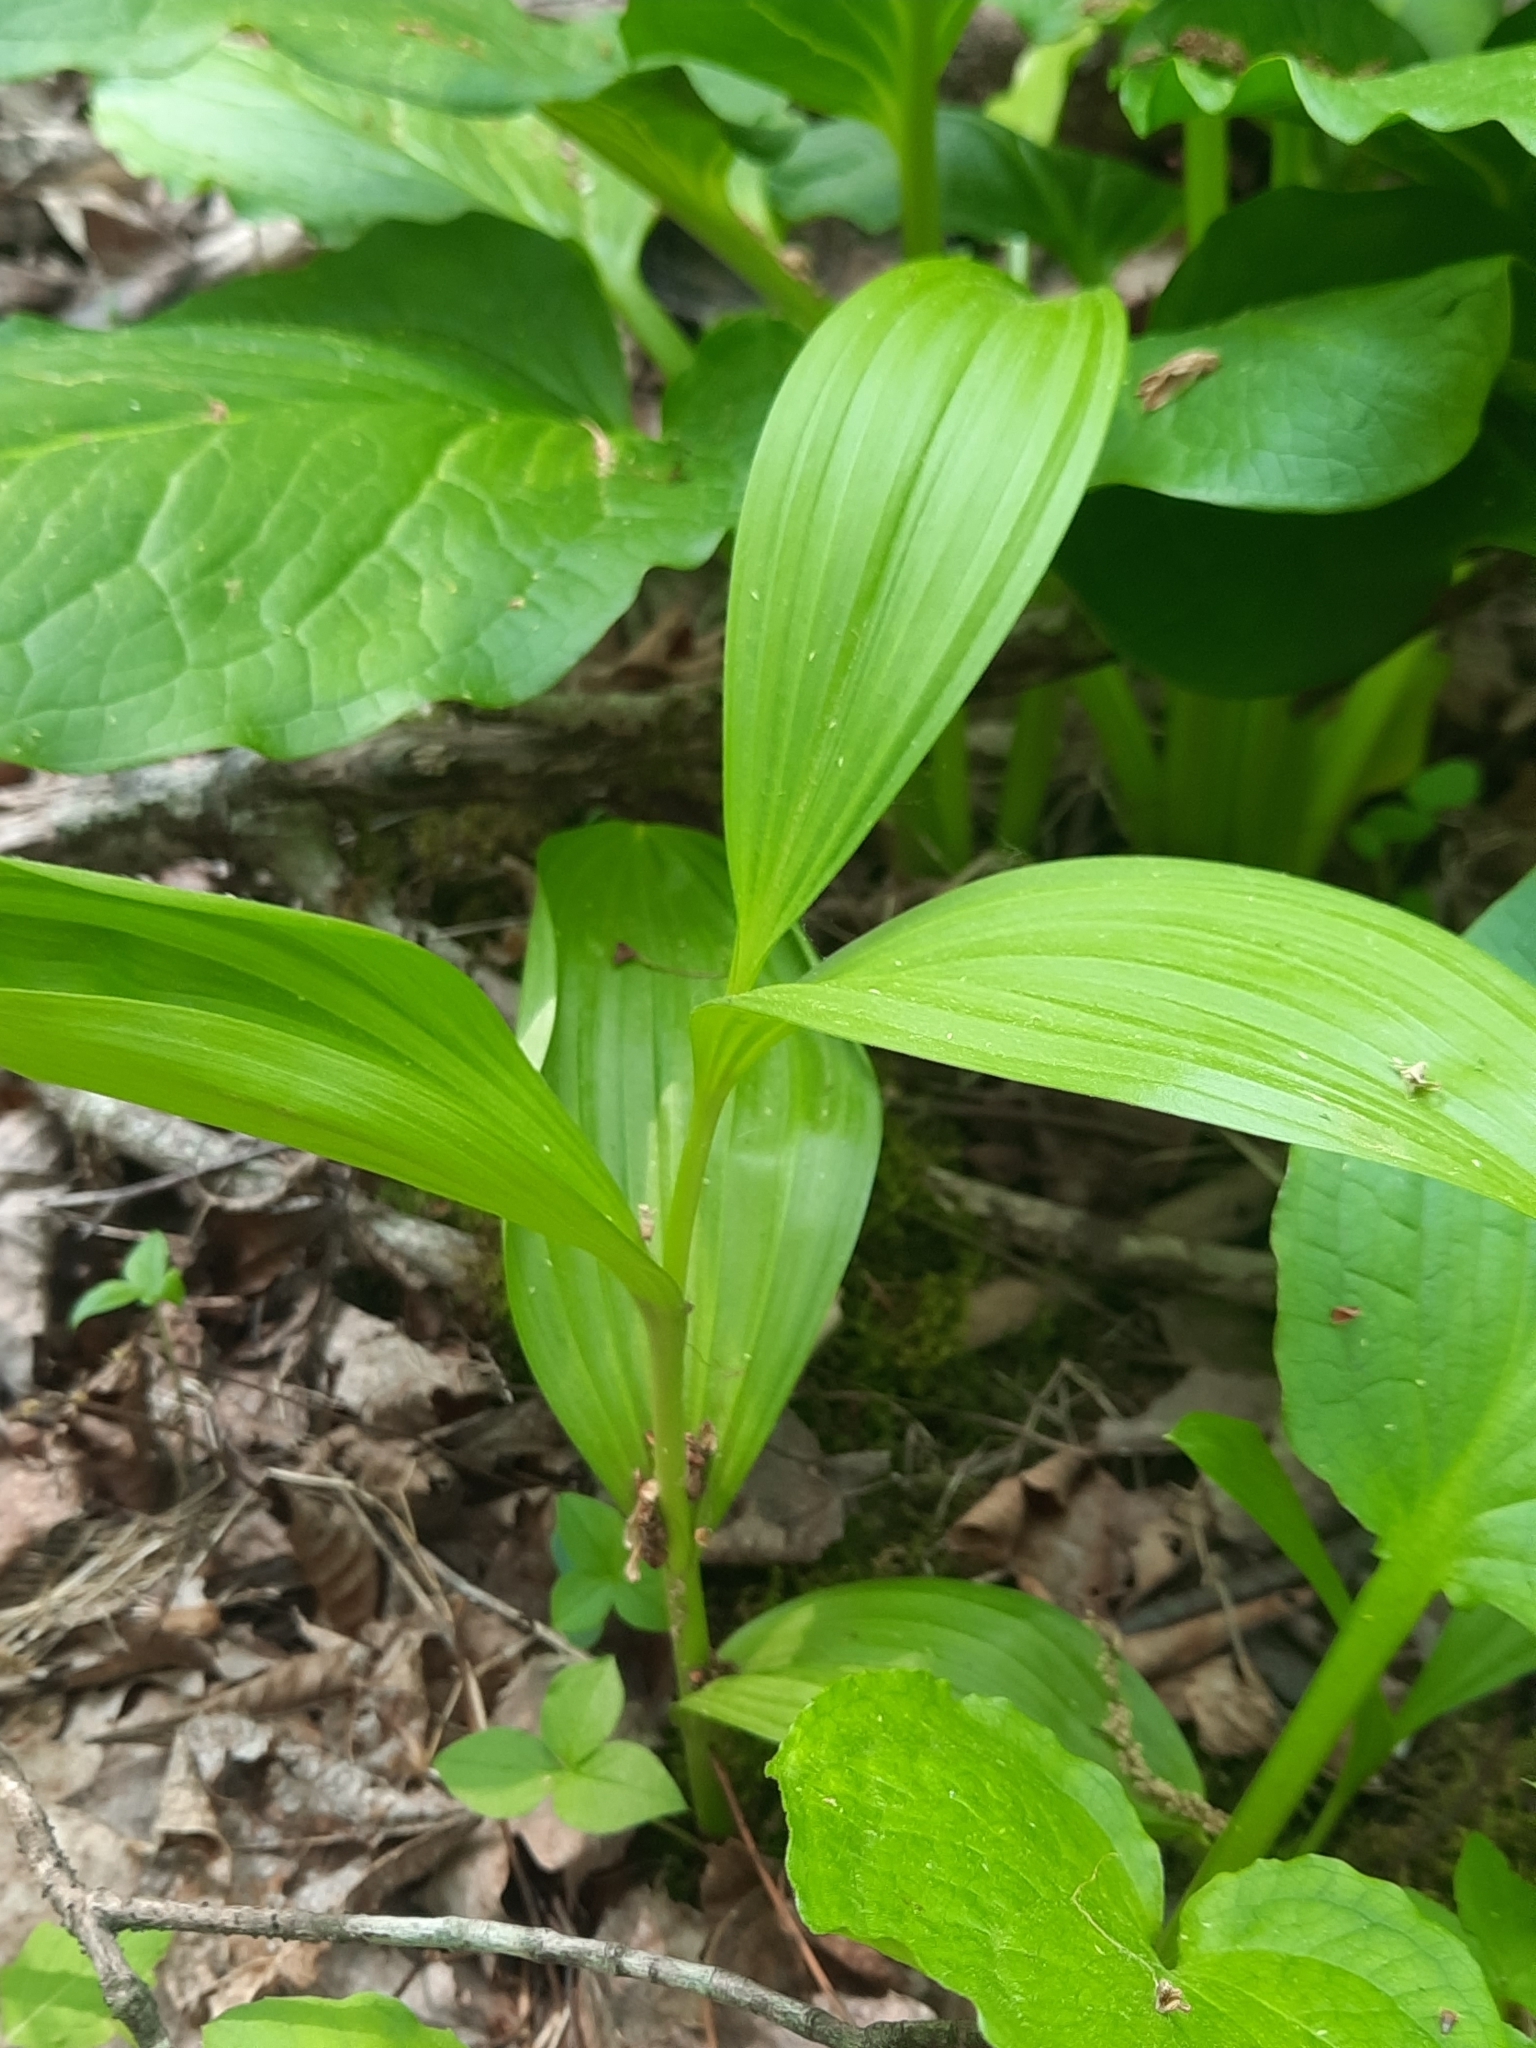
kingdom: Plantae
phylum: Tracheophyta
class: Liliopsida
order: Liliales
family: Melanthiaceae
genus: Veratrum
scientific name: Veratrum viride
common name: American false hellebore
